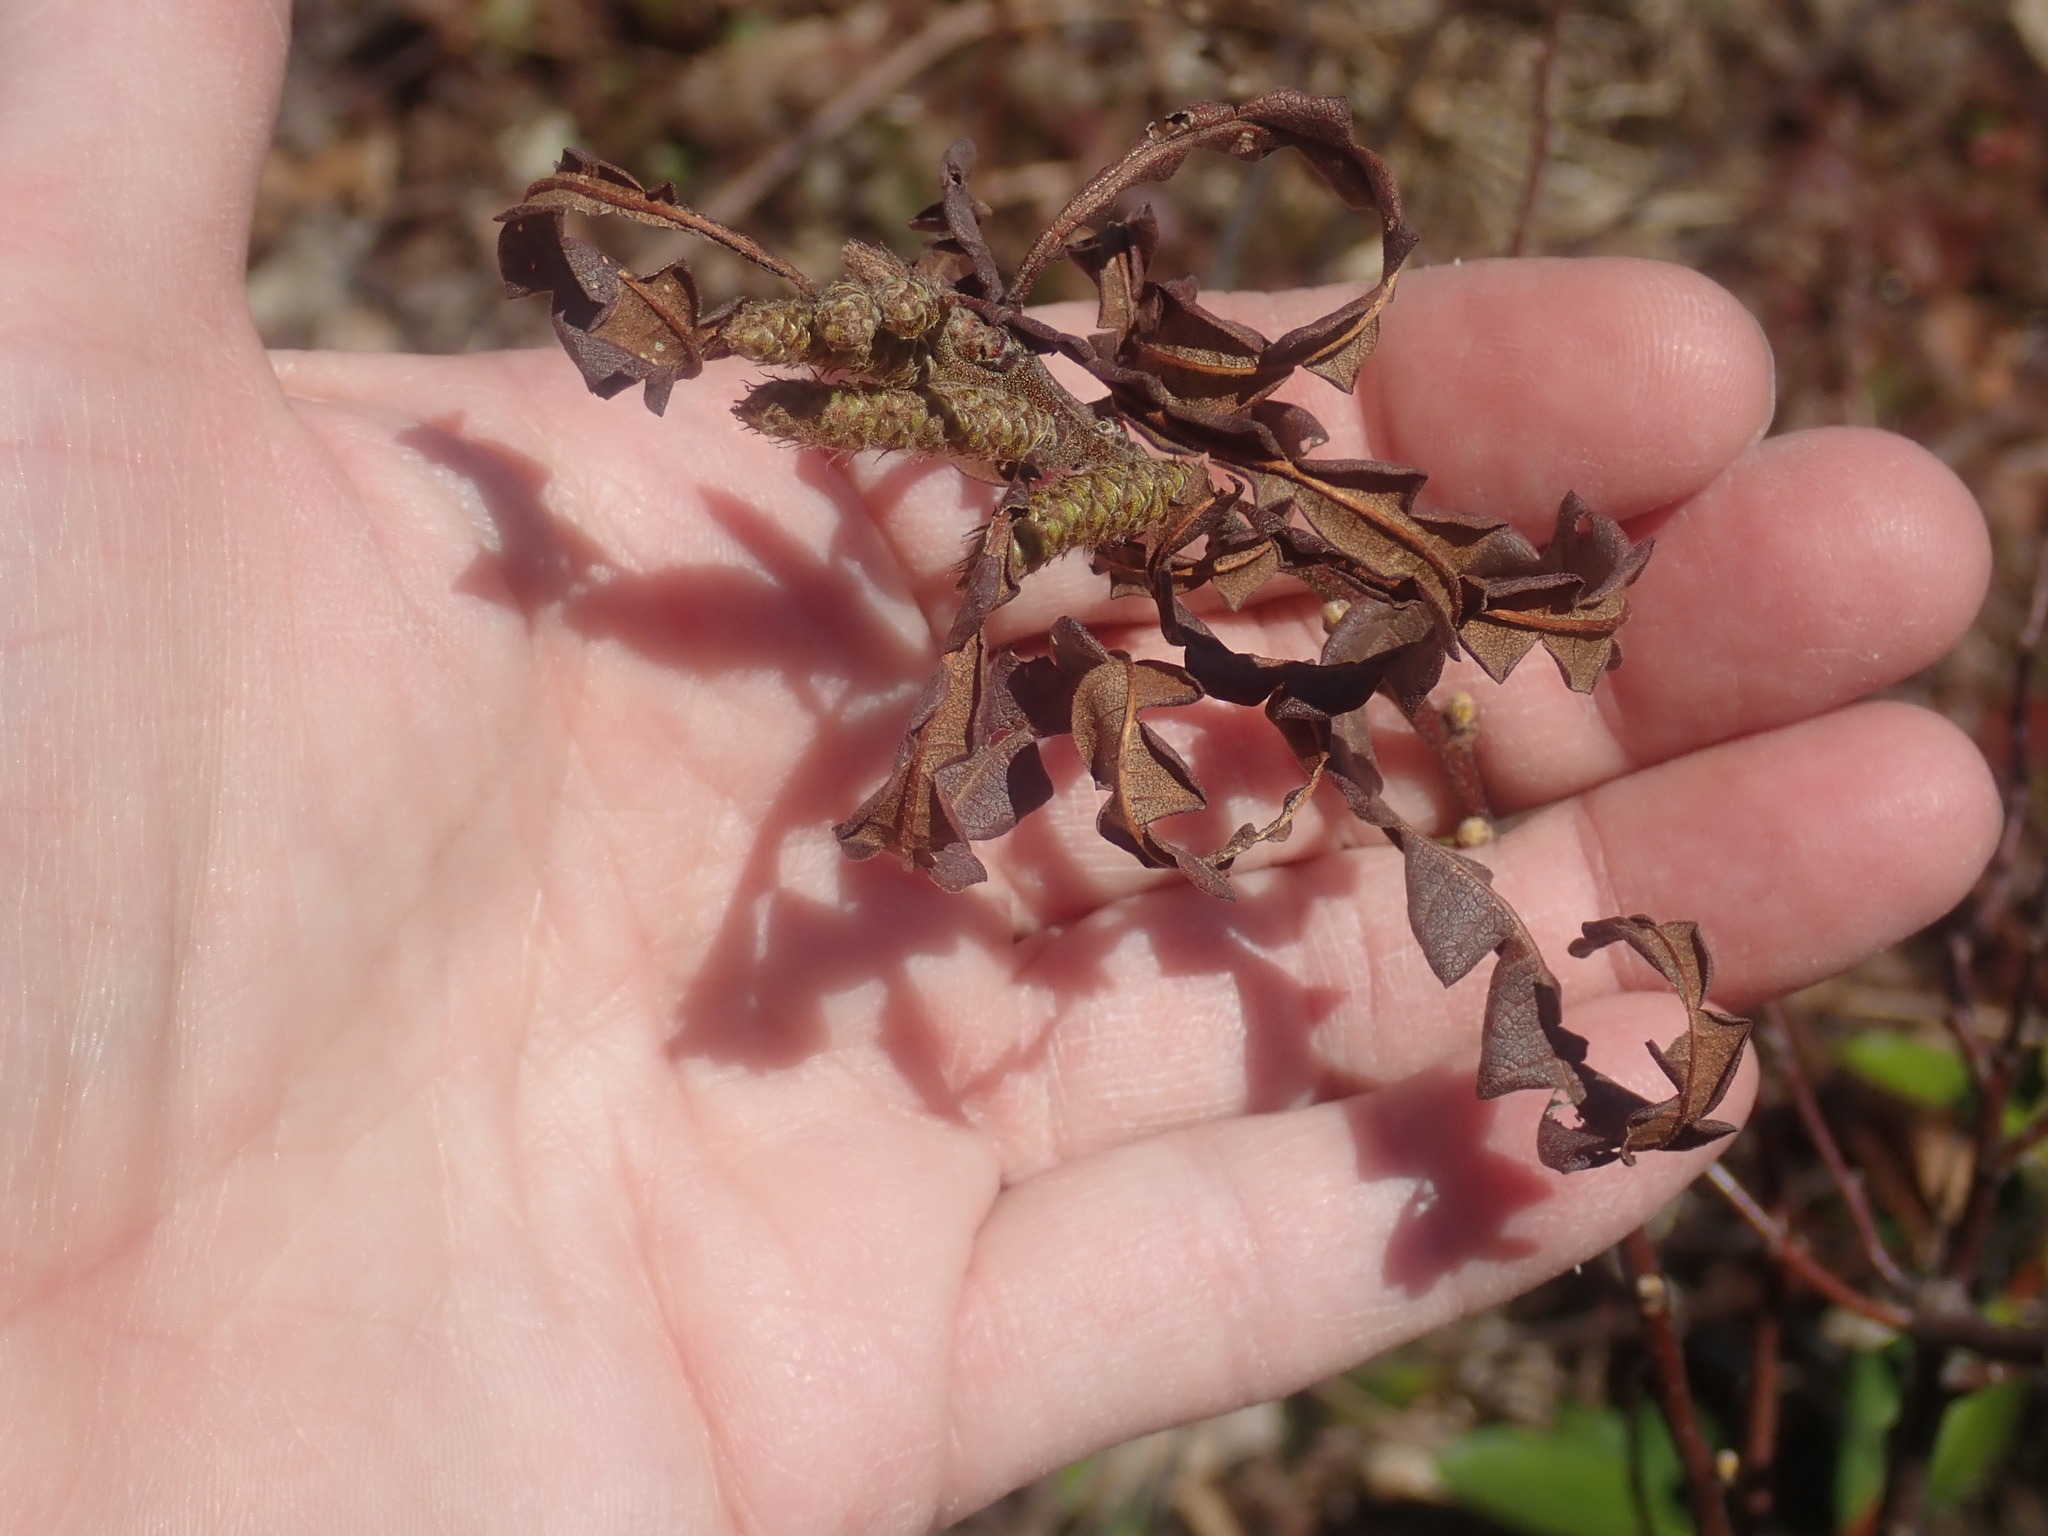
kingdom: Plantae
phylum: Tracheophyta
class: Magnoliopsida
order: Fagales
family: Myricaceae
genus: Comptonia
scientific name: Comptonia peregrina
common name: Sweet-fern
